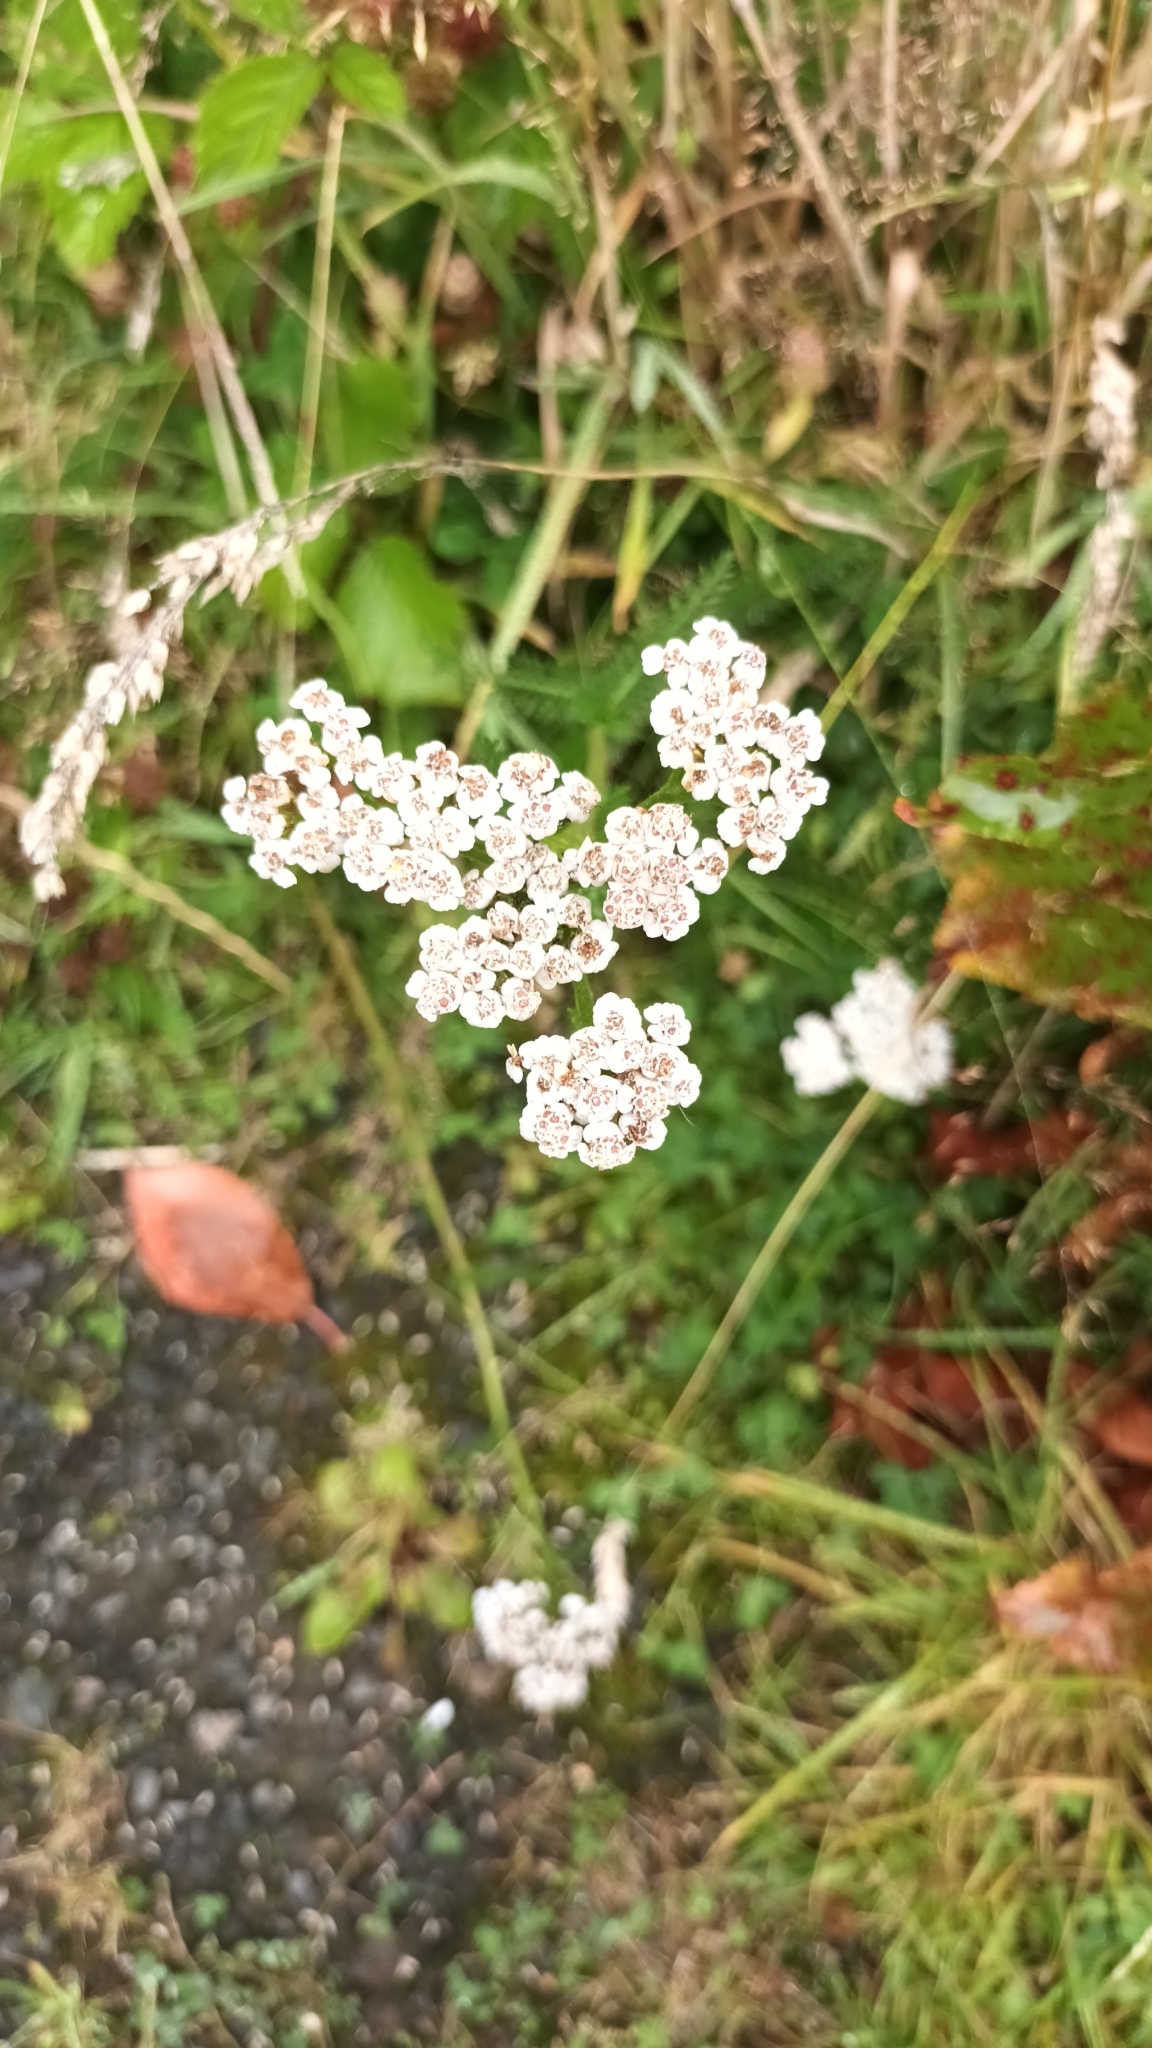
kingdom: Plantae
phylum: Tracheophyta
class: Magnoliopsida
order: Asterales
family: Asteraceae
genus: Achillea
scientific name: Achillea millefolium
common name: Yarrow
